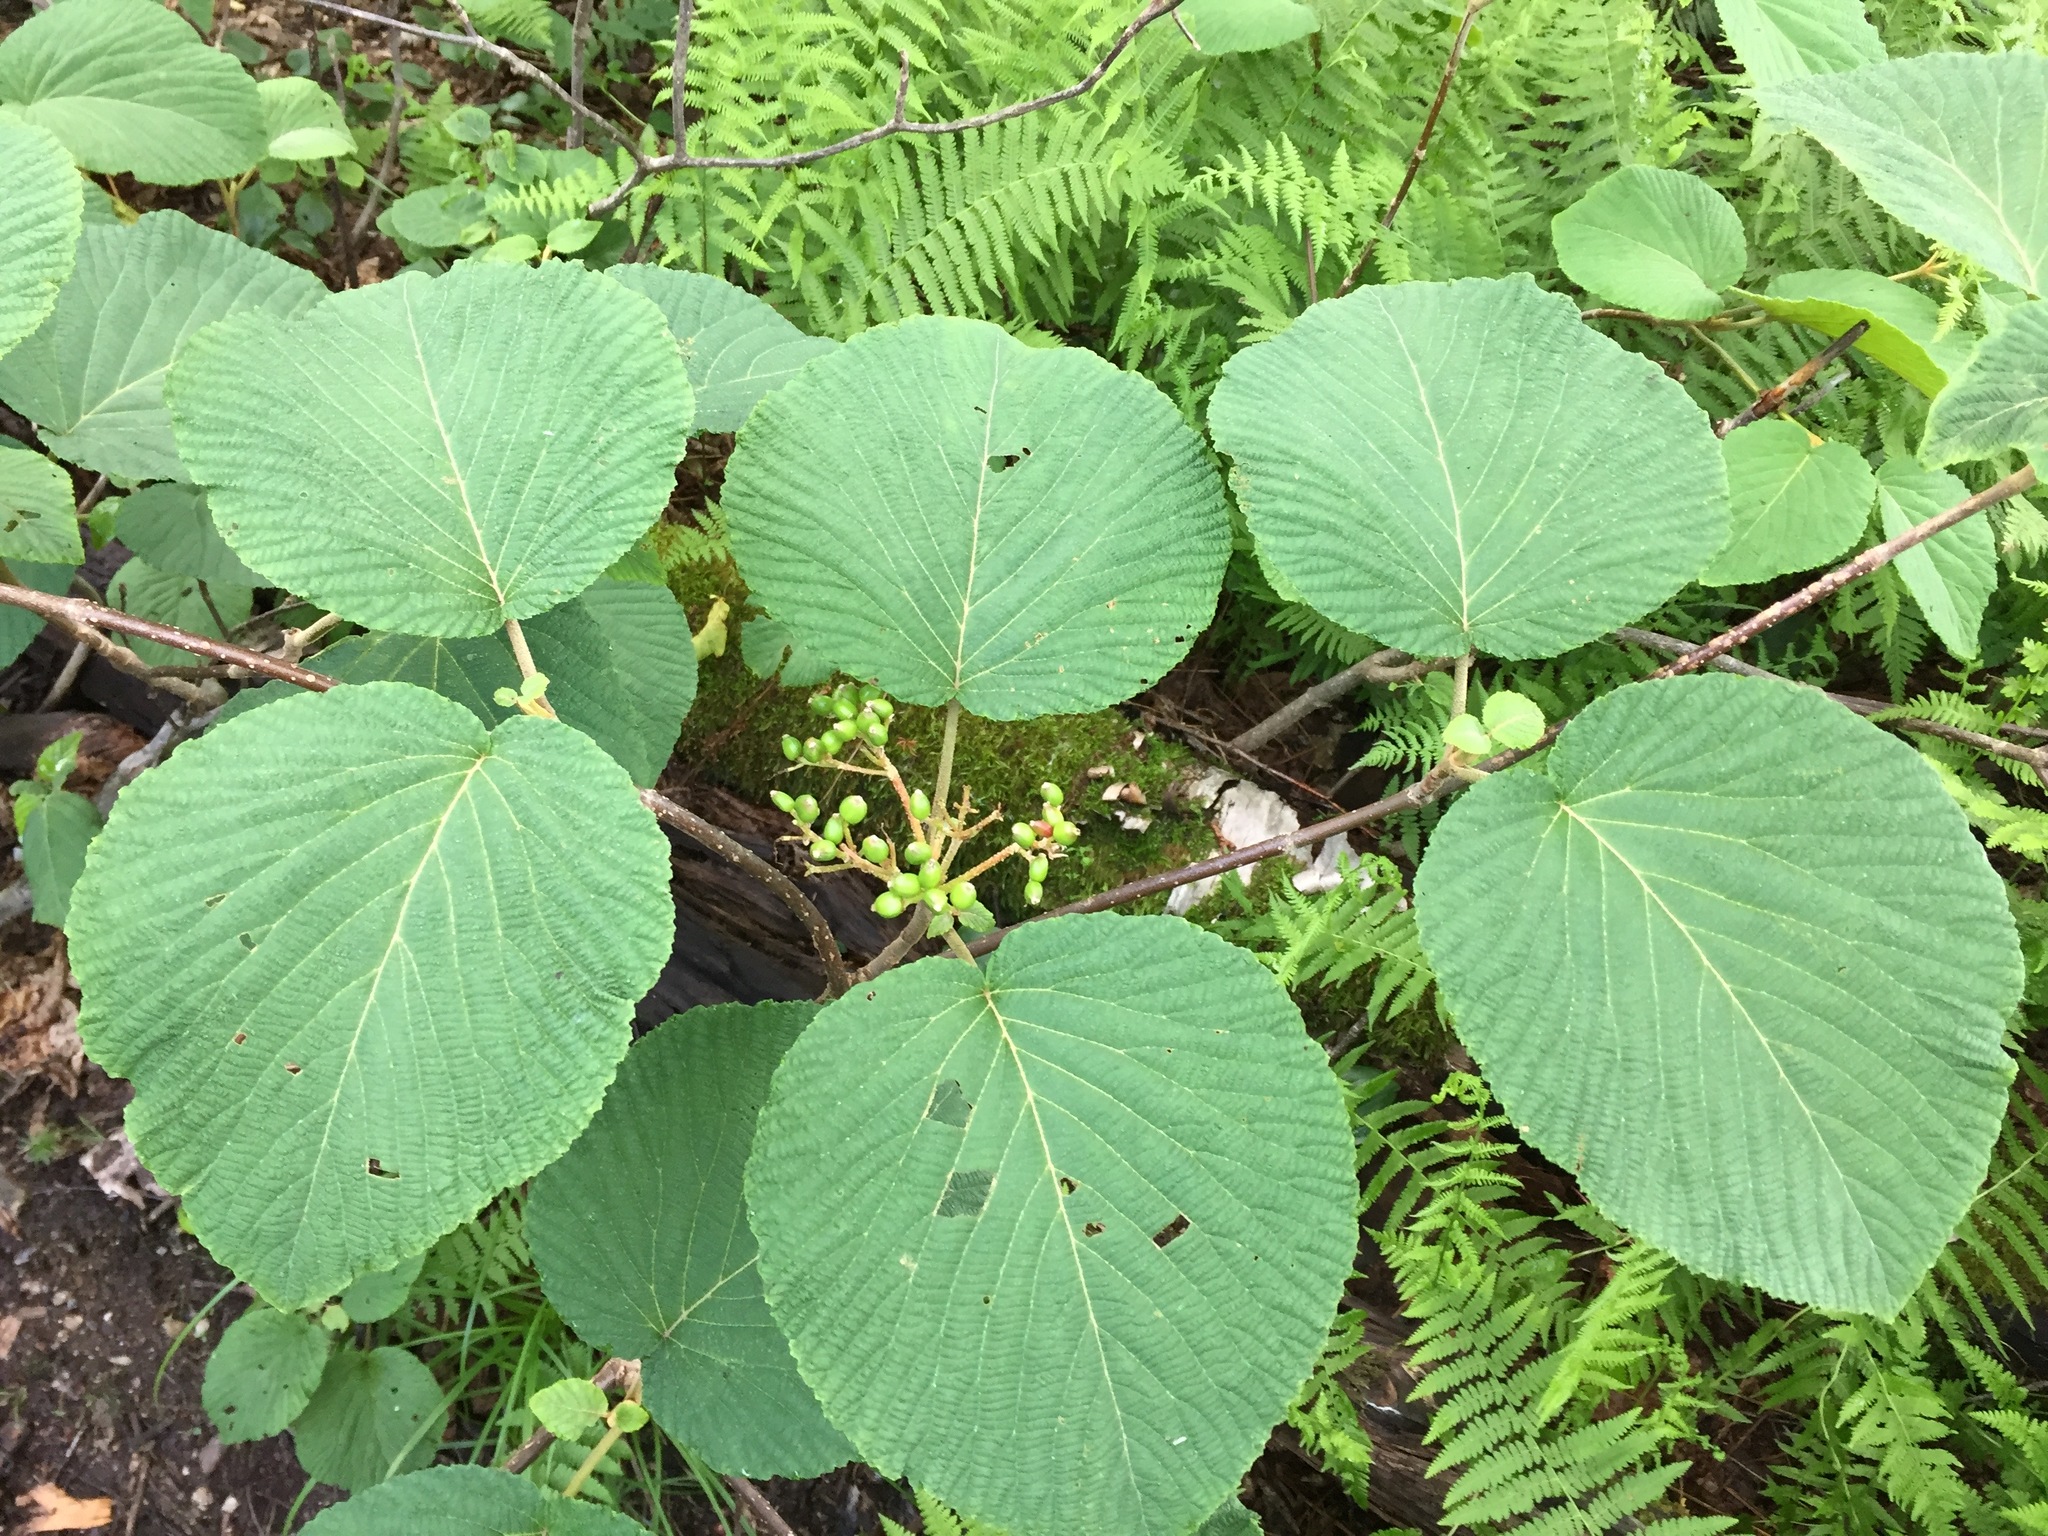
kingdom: Plantae
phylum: Tracheophyta
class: Magnoliopsida
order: Dipsacales
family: Viburnaceae
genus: Viburnum
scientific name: Viburnum lantanoides
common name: Hobblebush
